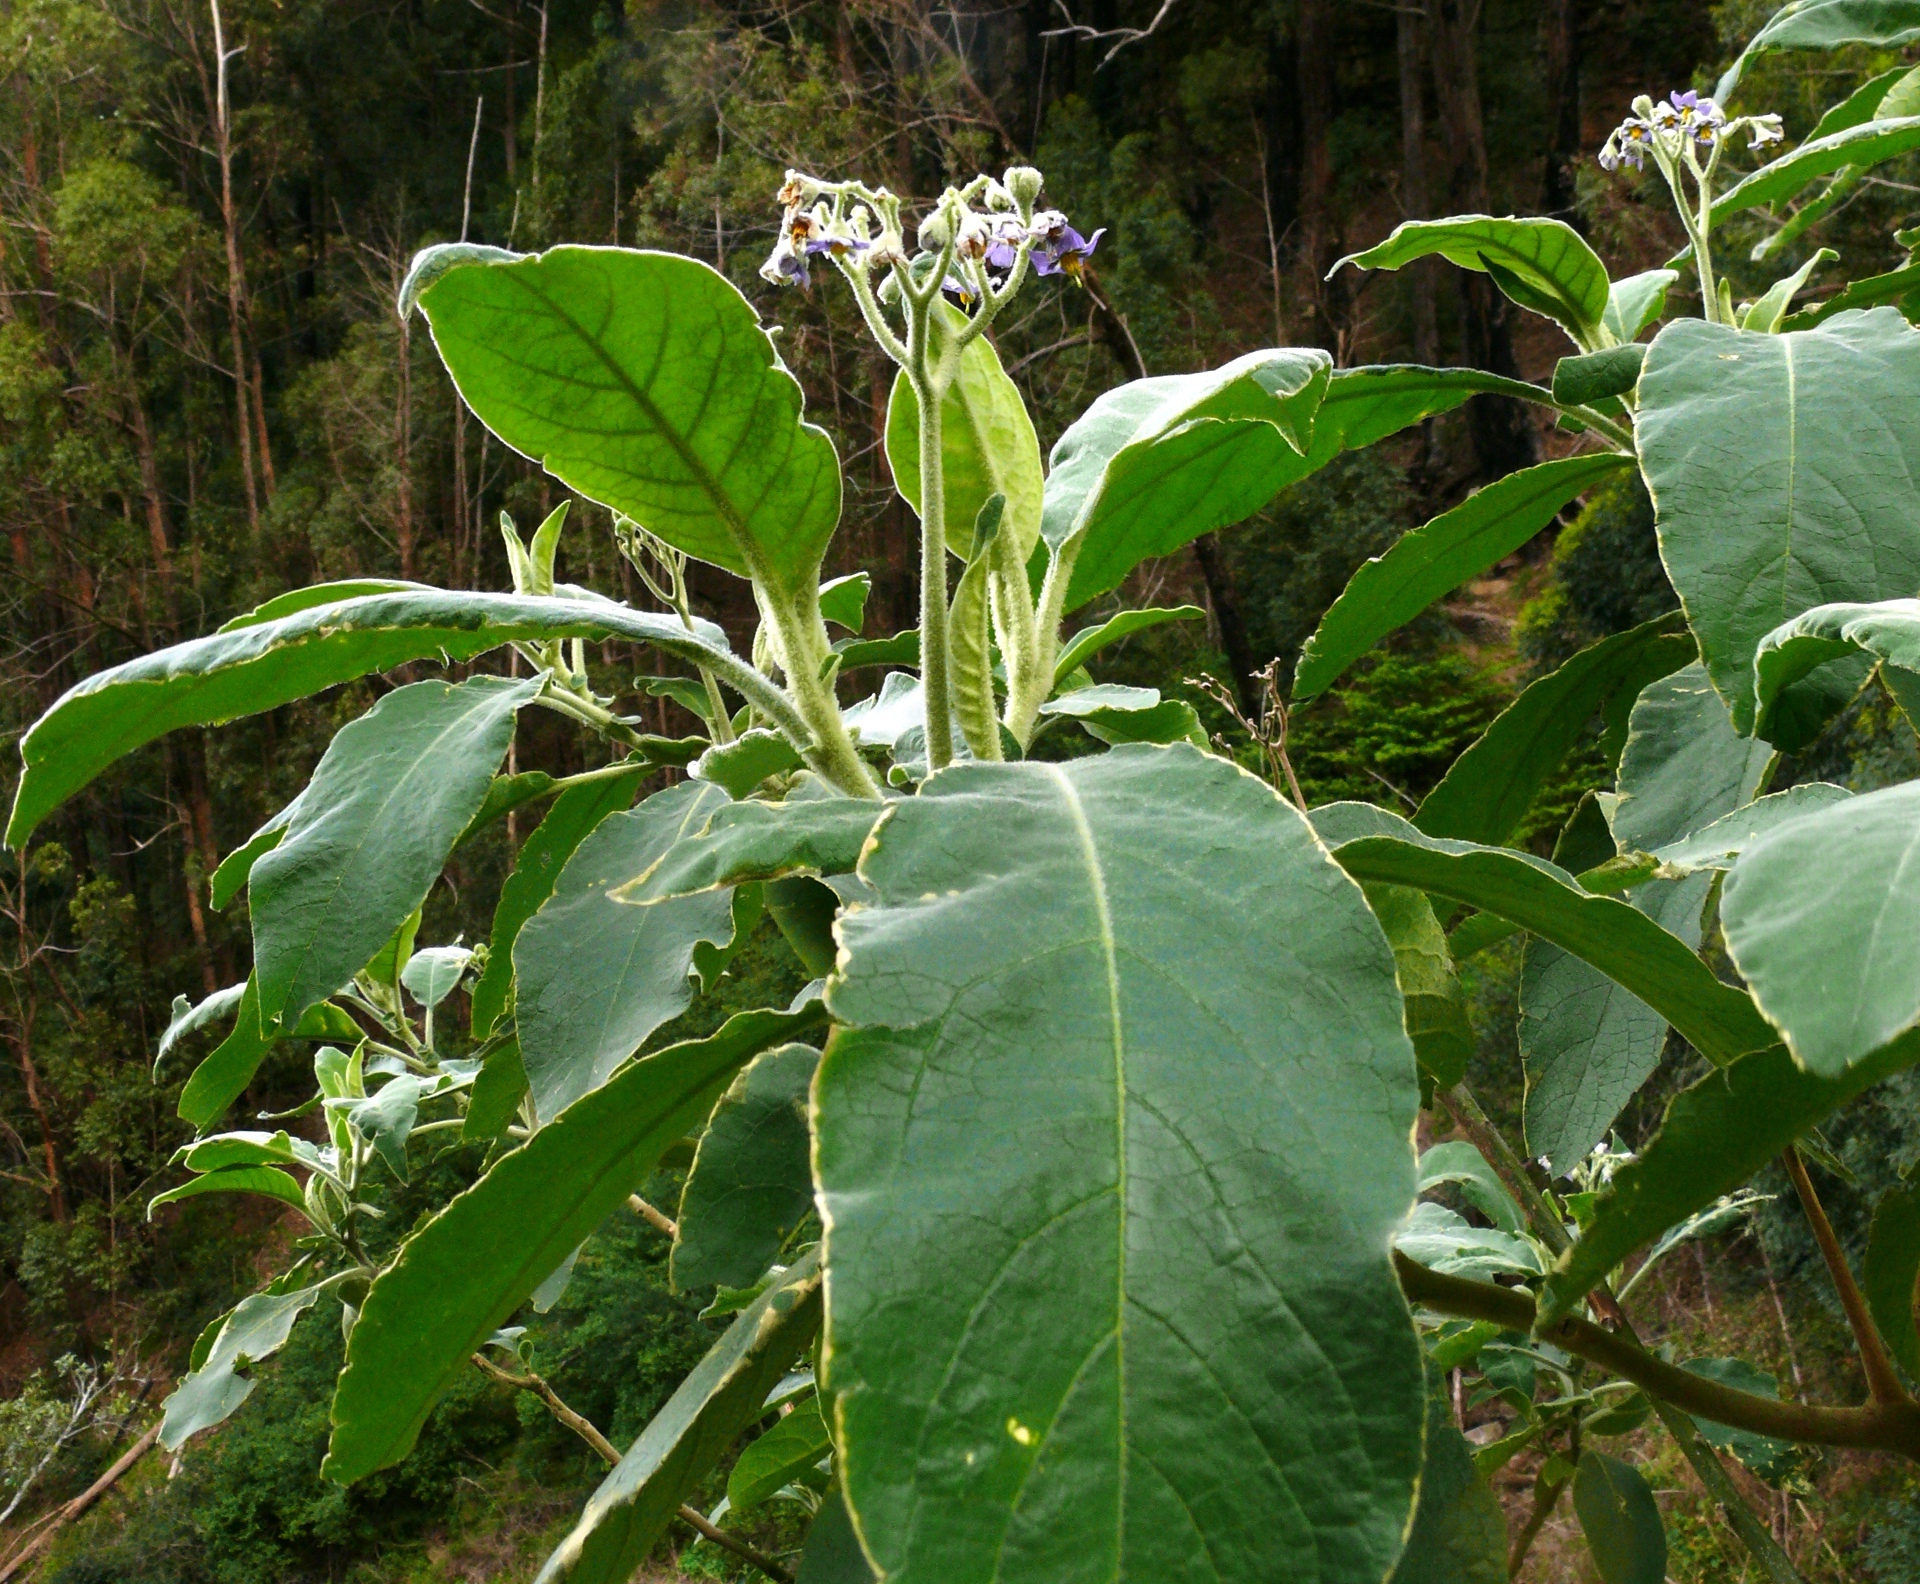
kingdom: Plantae
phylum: Tracheophyta
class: Magnoliopsida
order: Solanales
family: Solanaceae
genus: Solanum
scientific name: Solanum mauritianum
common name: Earleaf nightshade
